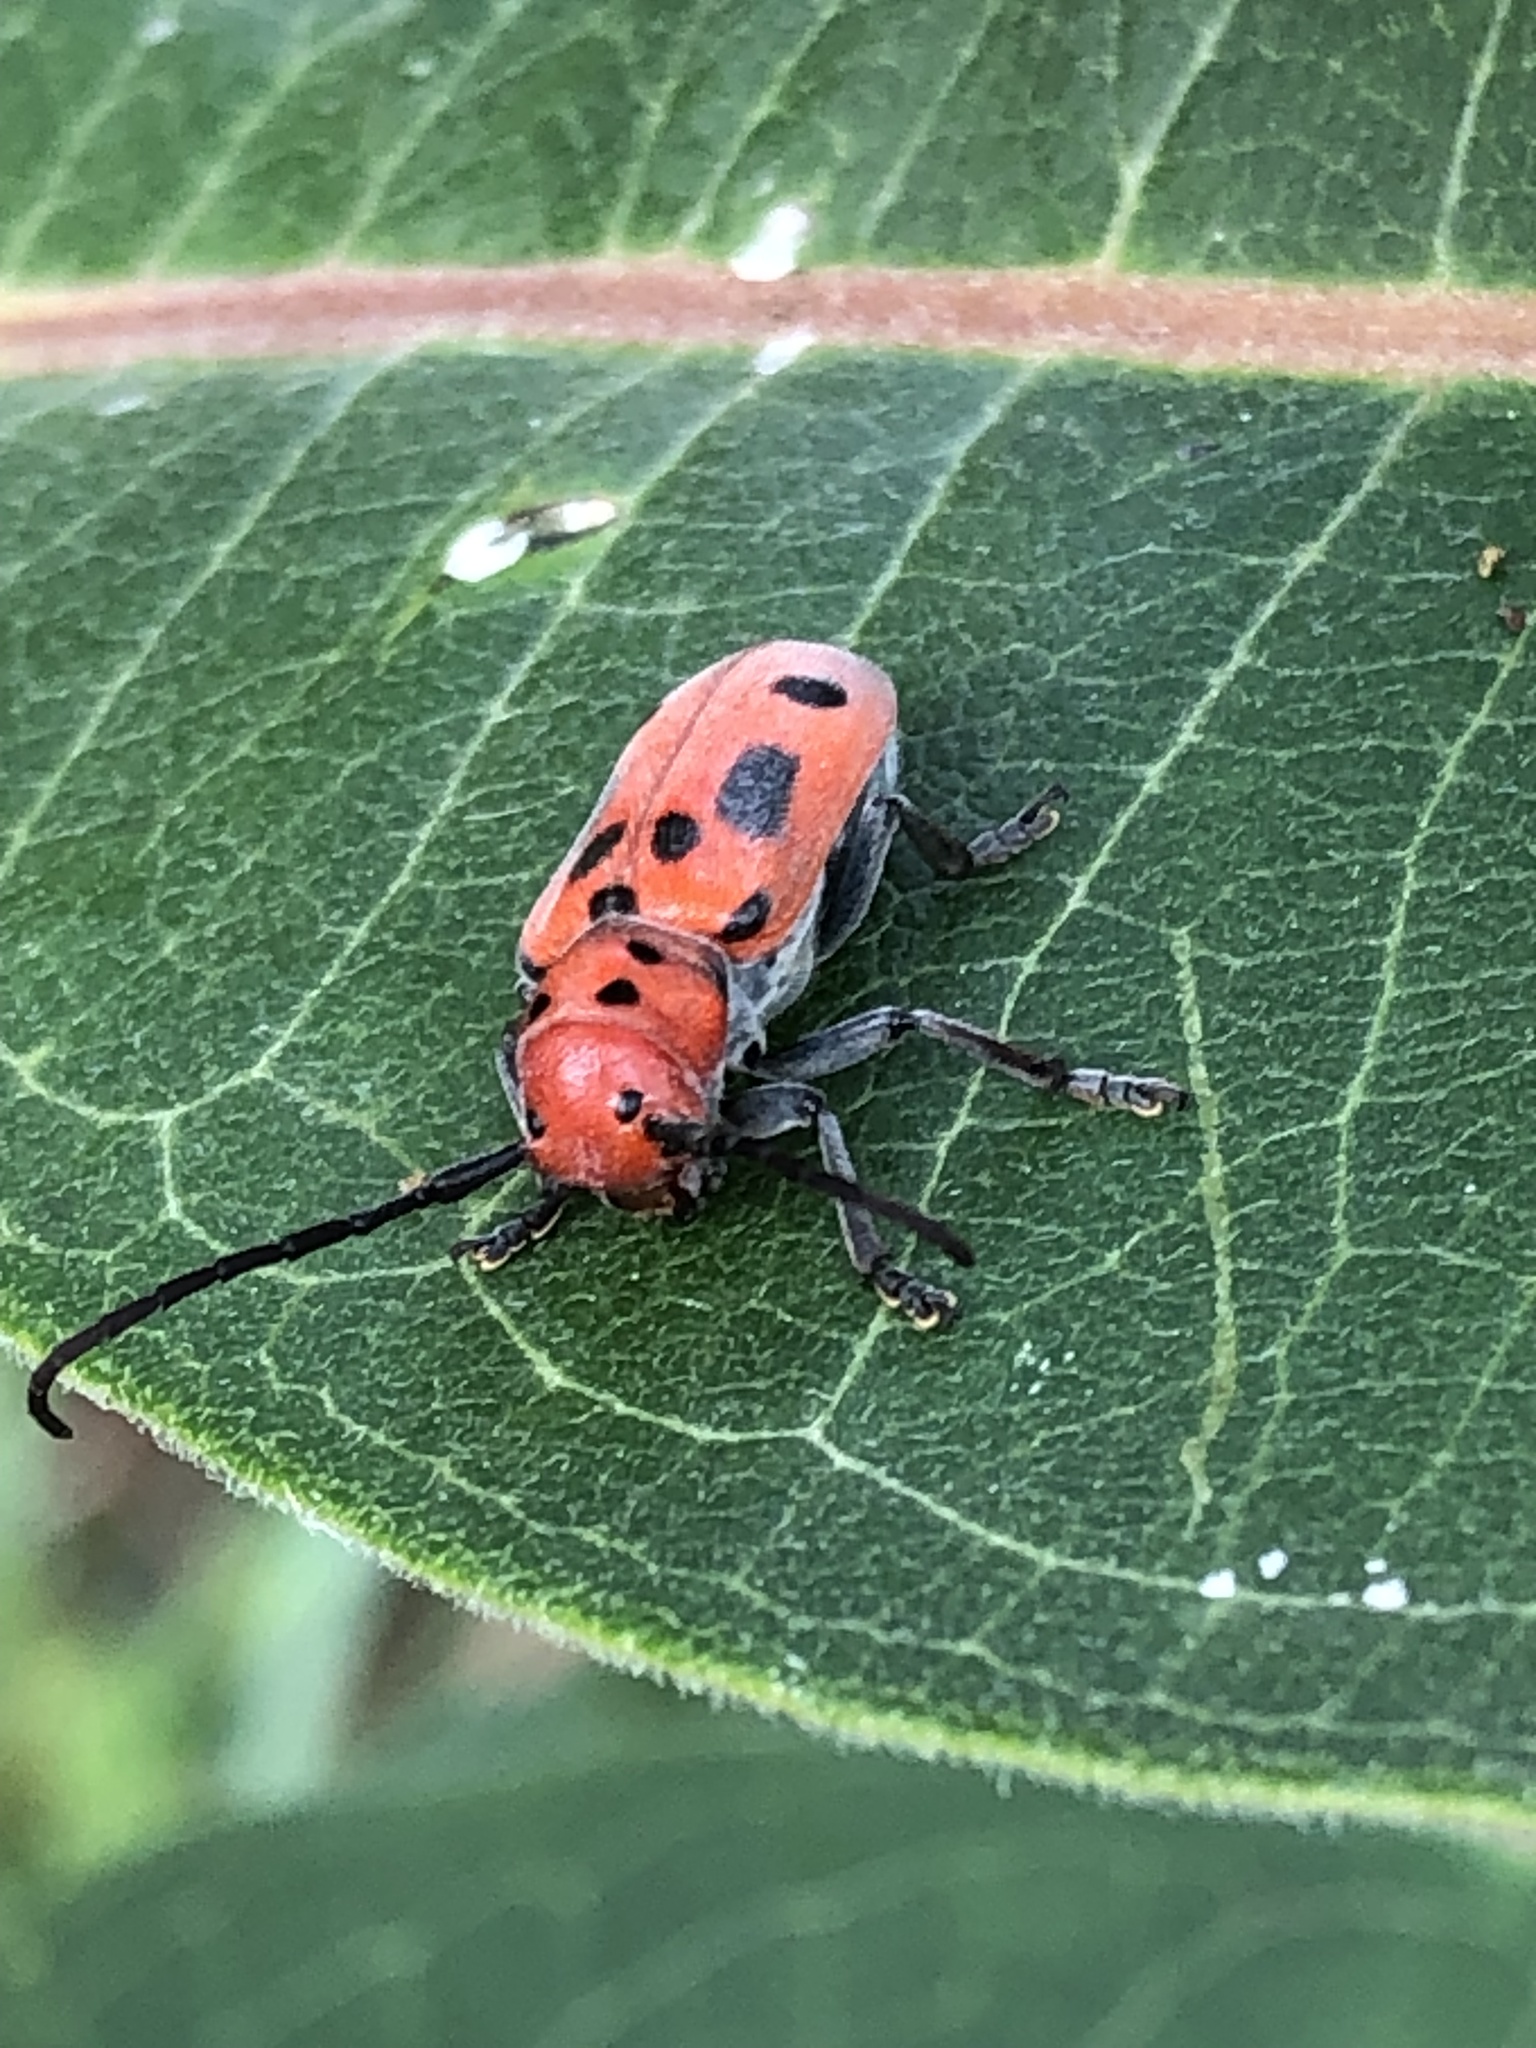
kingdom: Animalia
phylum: Arthropoda
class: Insecta
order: Coleoptera
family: Cerambycidae
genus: Tetraopes
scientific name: Tetraopes tetrophthalmus
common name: Red milkweed beetle
